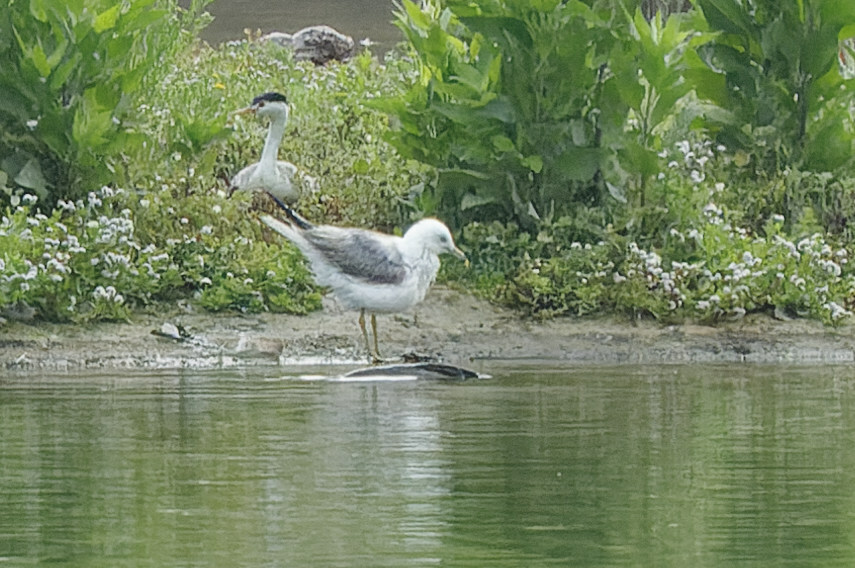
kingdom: Animalia
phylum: Chordata
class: Aves
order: Charadriiformes
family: Laridae
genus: Larus
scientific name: Larus delawarensis
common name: Ring-billed gull
